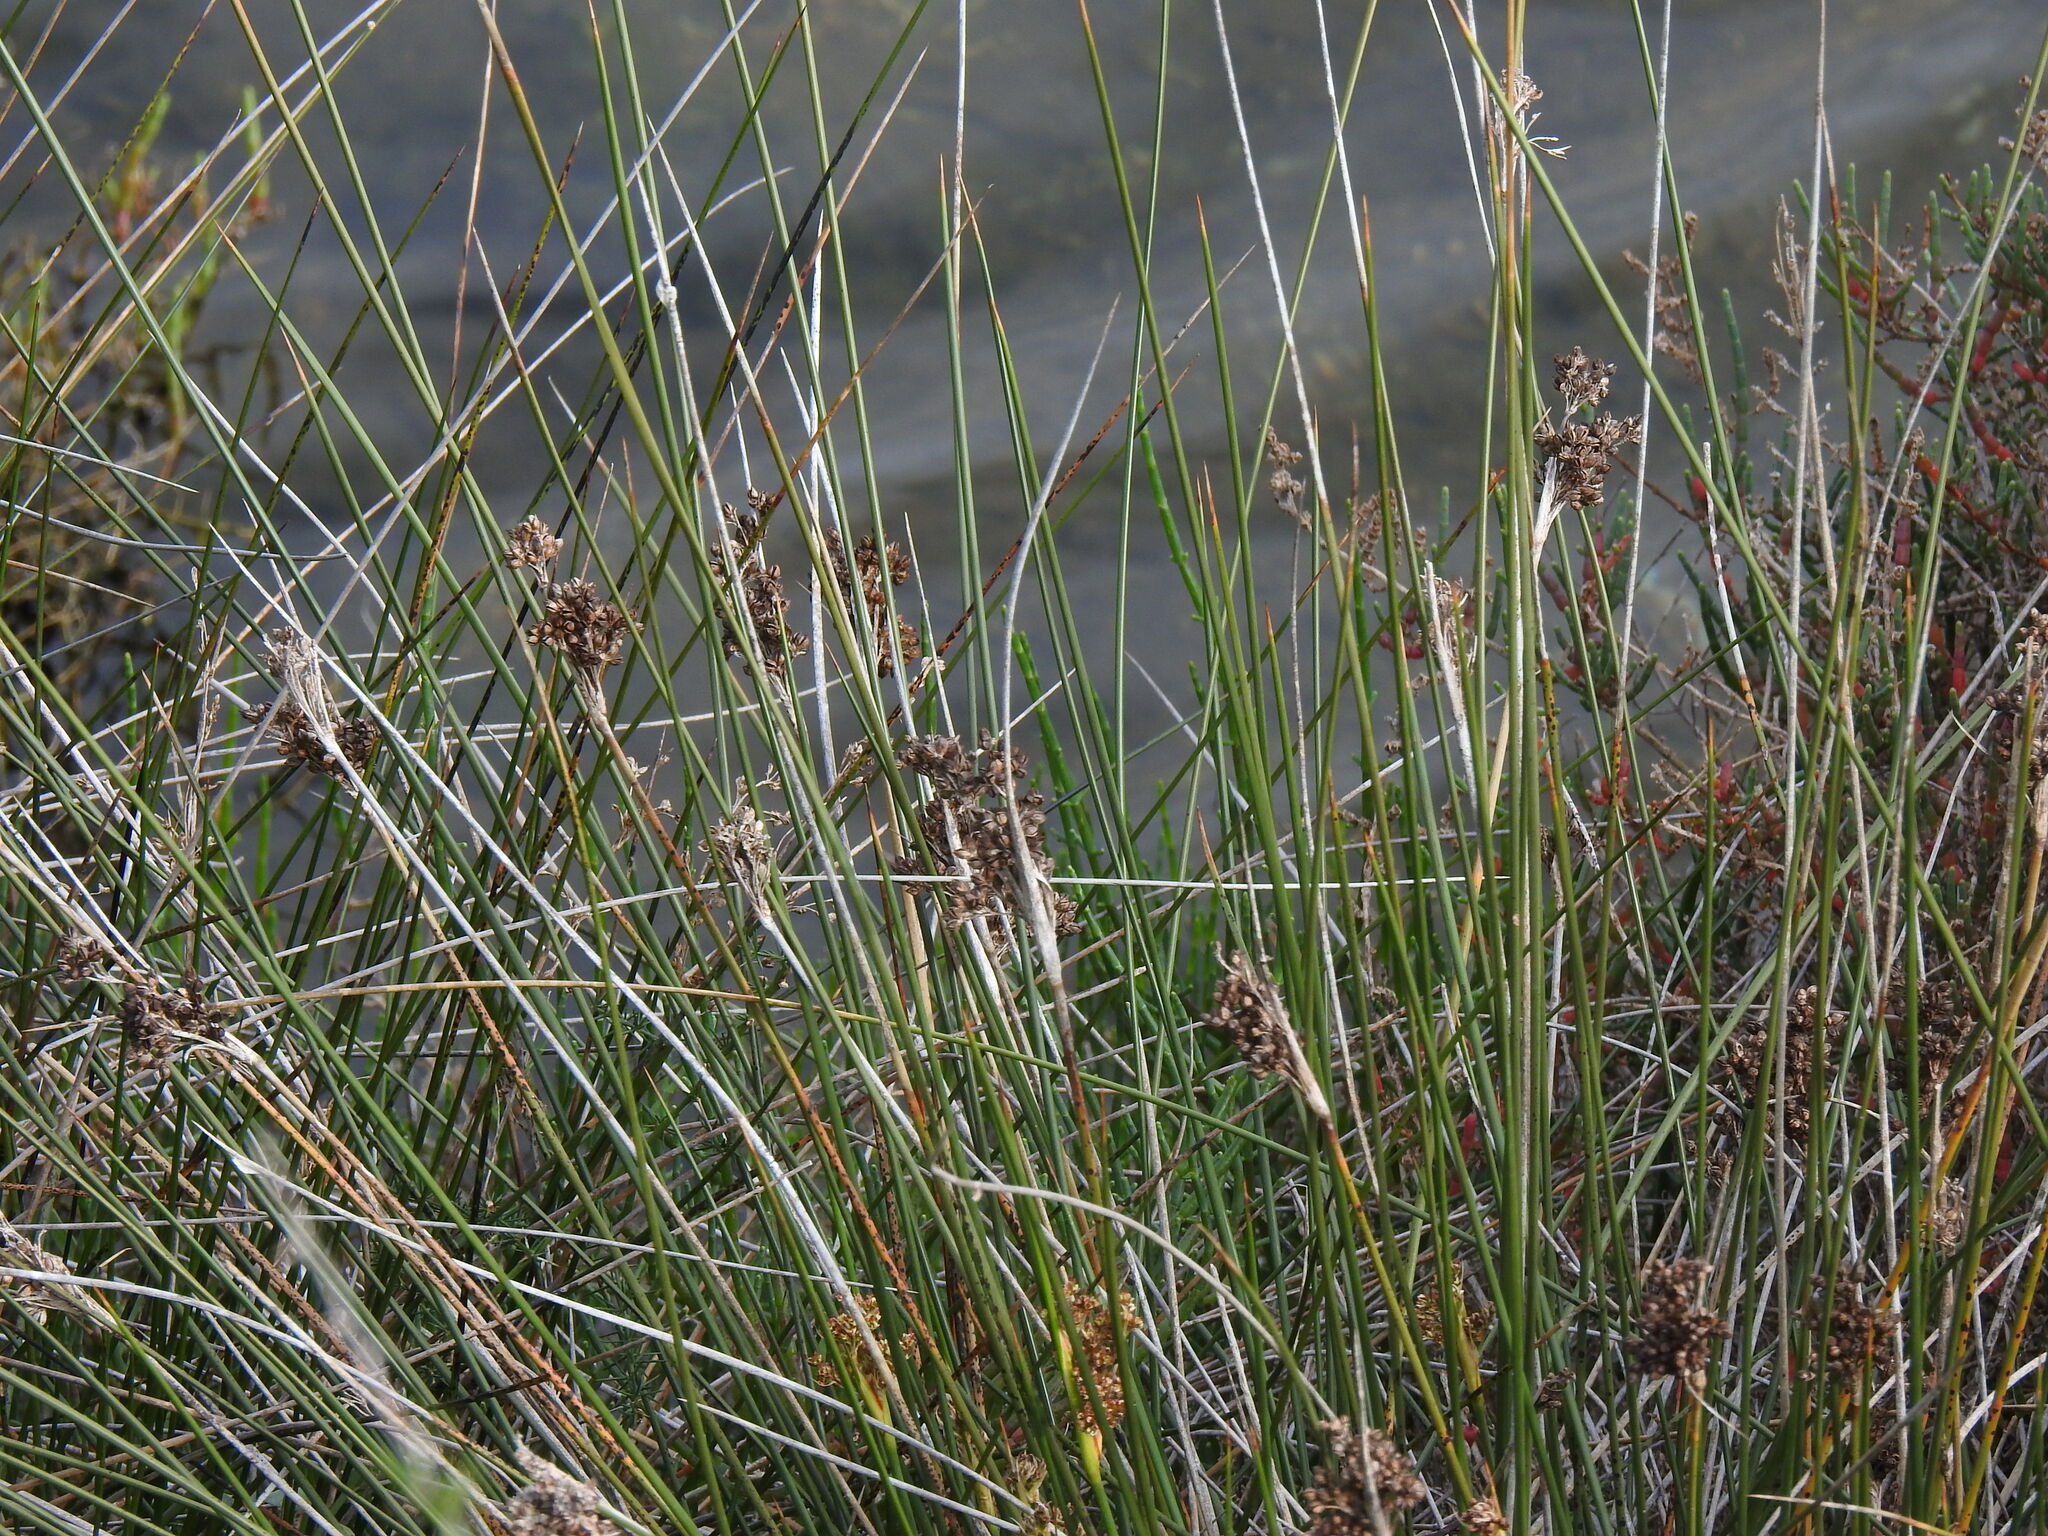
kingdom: Plantae
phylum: Tracheophyta
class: Liliopsida
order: Poales
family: Juncaceae
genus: Juncus
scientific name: Juncus acutus
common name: Sharp rush
